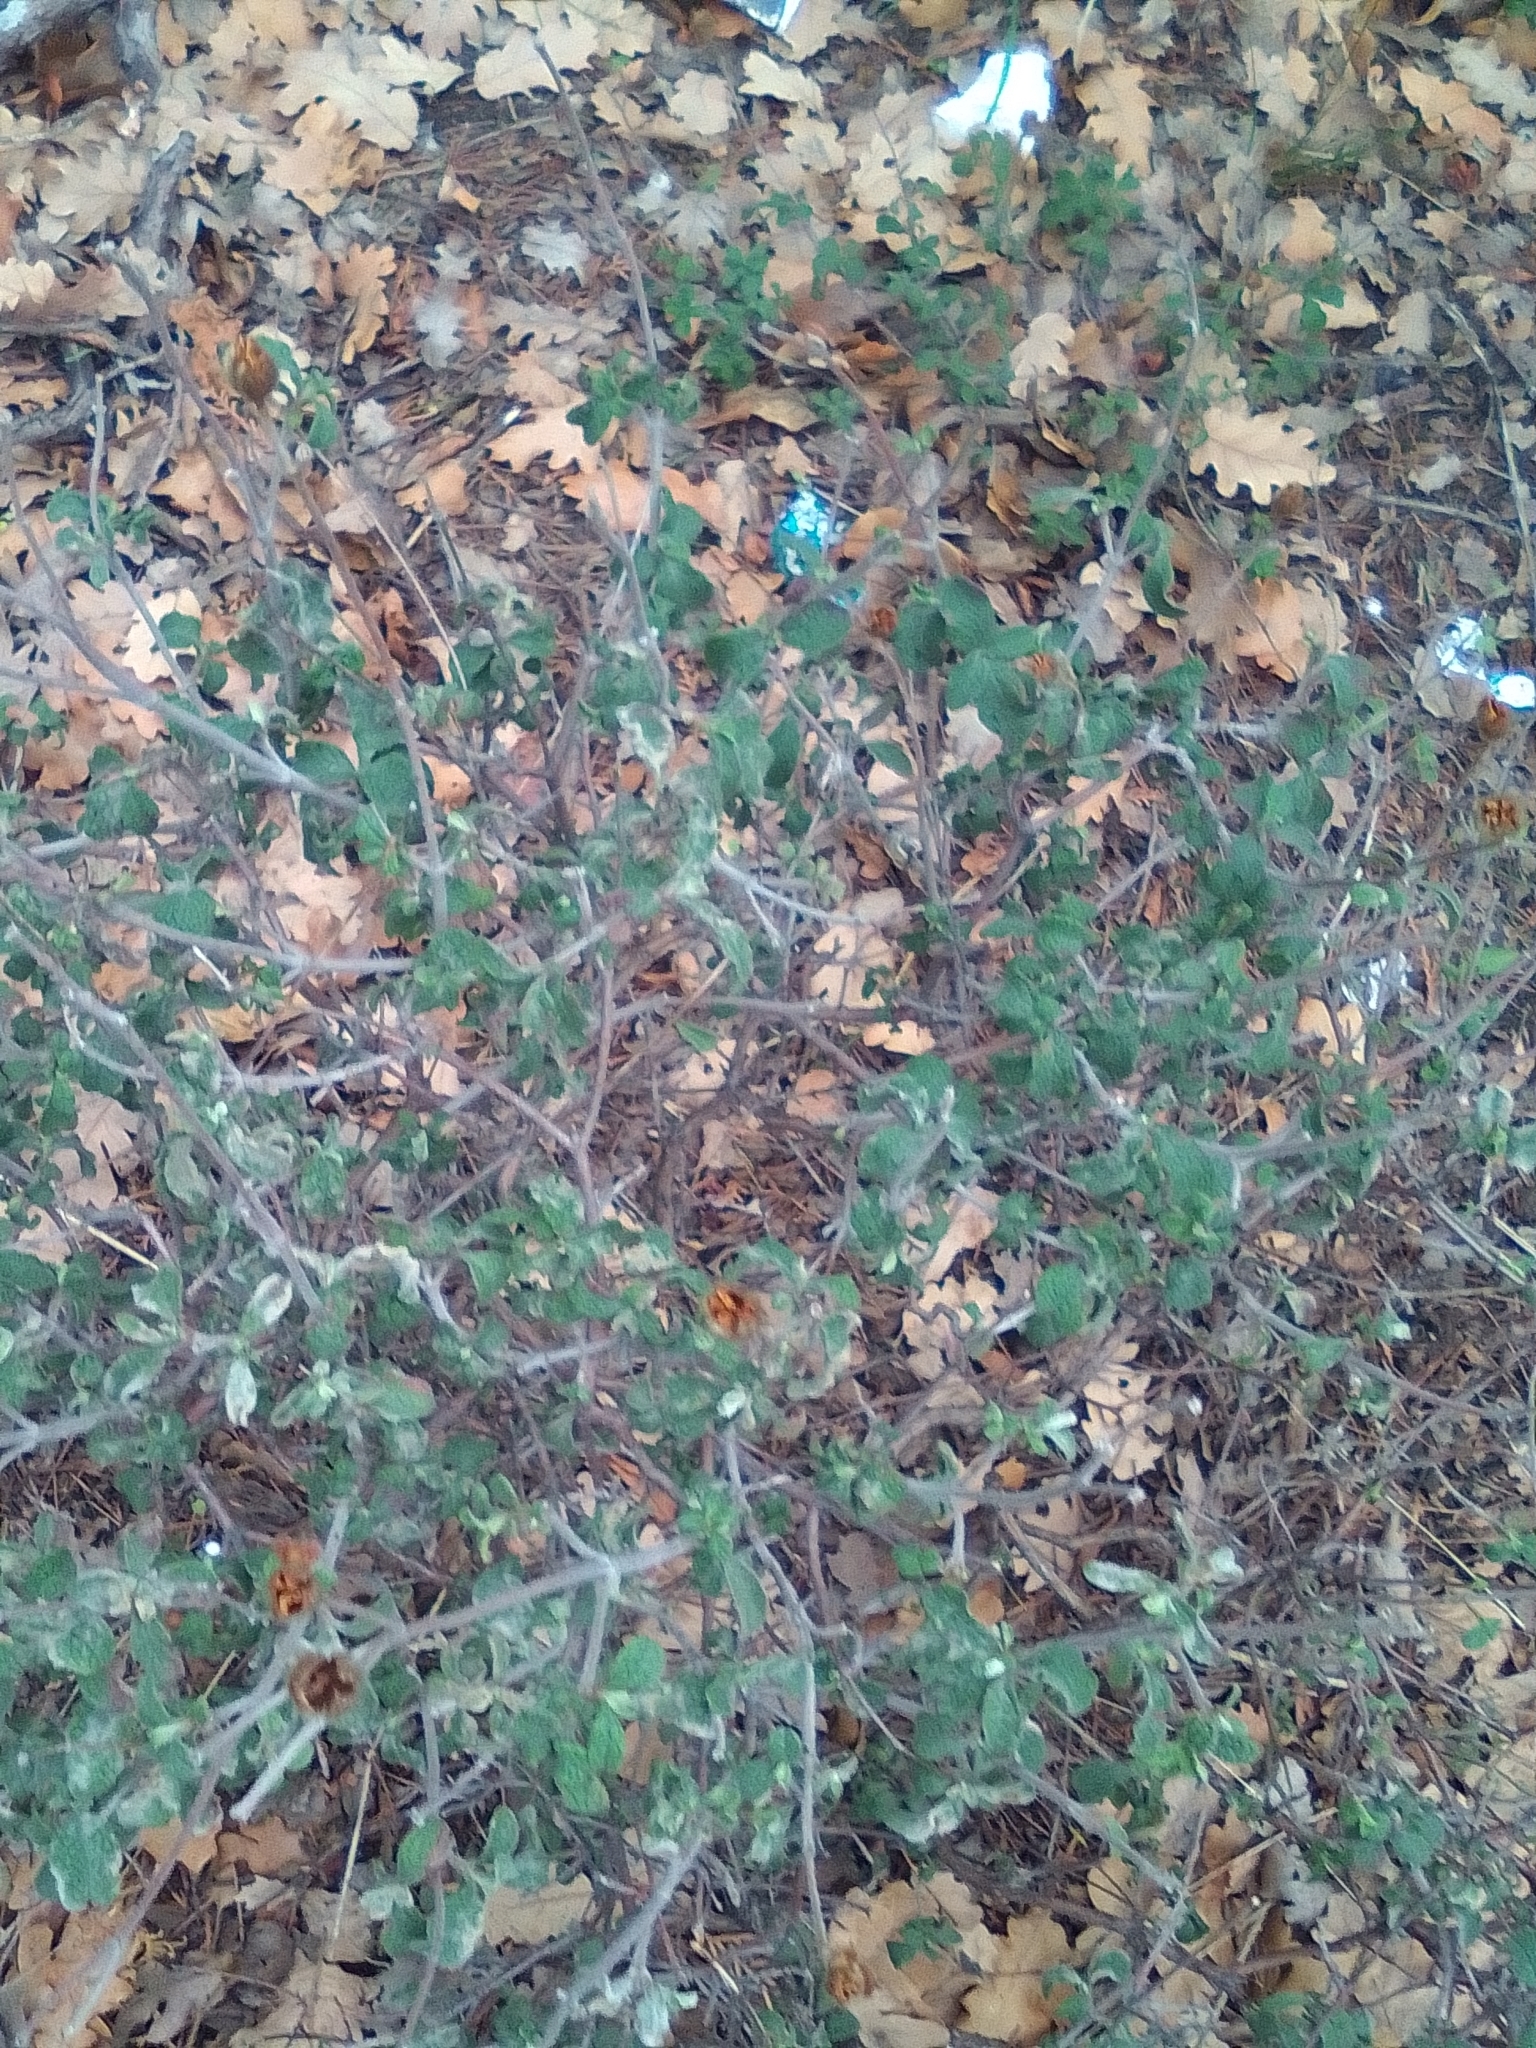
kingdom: Plantae
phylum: Tracheophyta
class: Magnoliopsida
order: Malvales
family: Cistaceae
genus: Cistus
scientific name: Cistus tauricus
